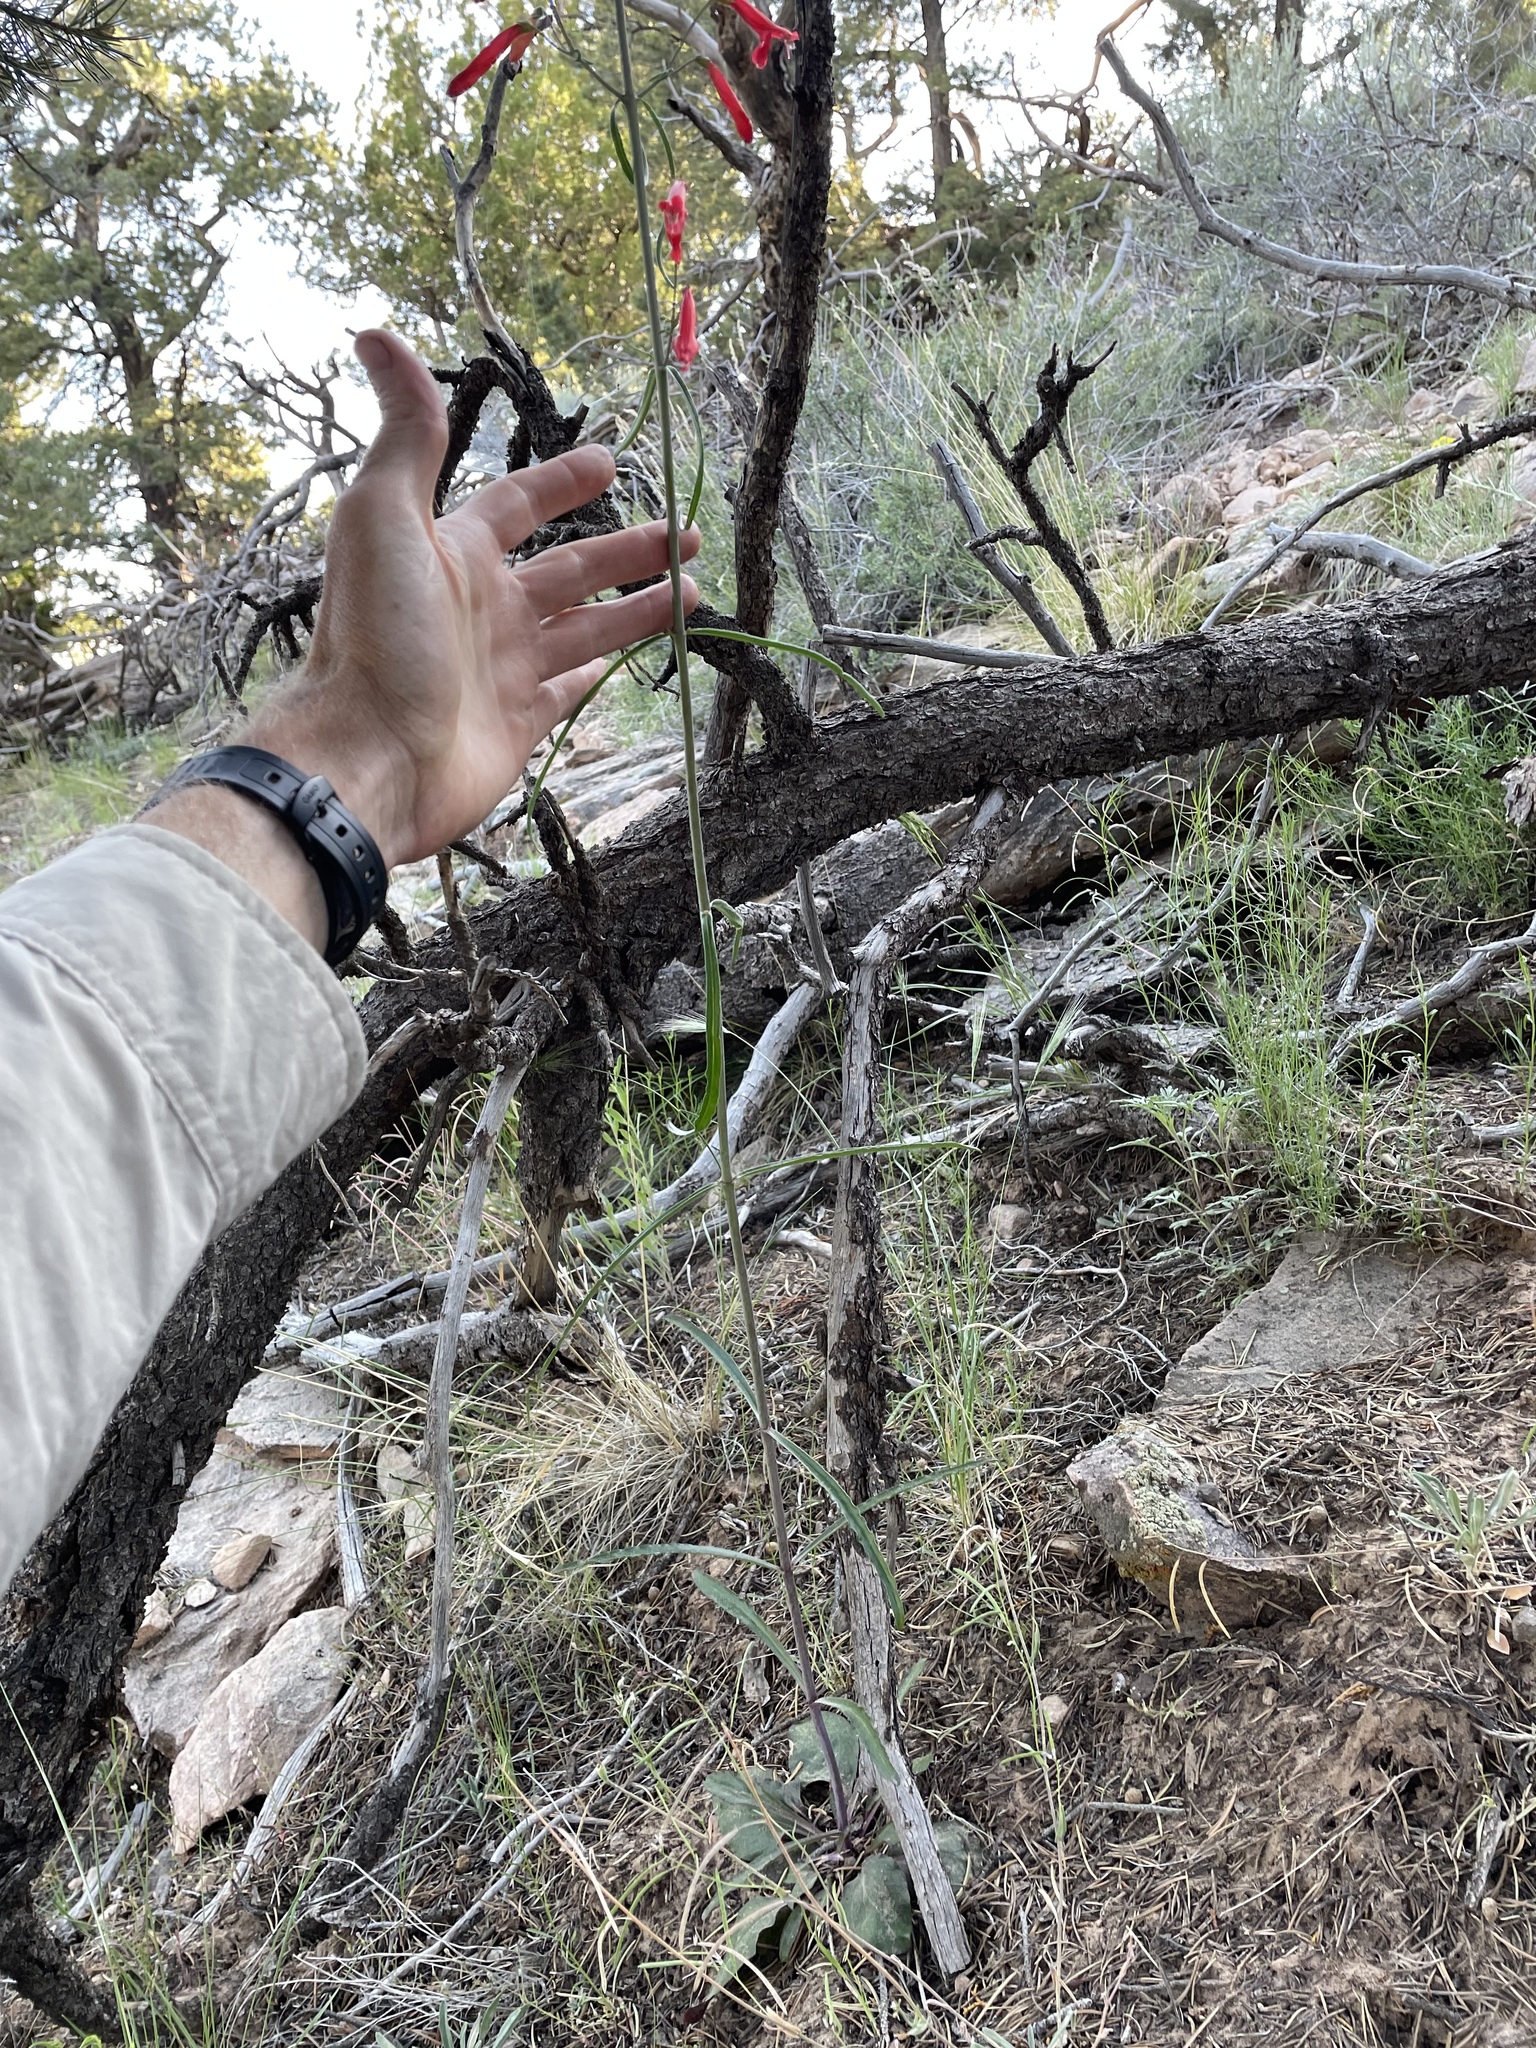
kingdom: Plantae
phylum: Tracheophyta
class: Magnoliopsida
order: Lamiales
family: Plantaginaceae
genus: Penstemon
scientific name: Penstemon barbatus
